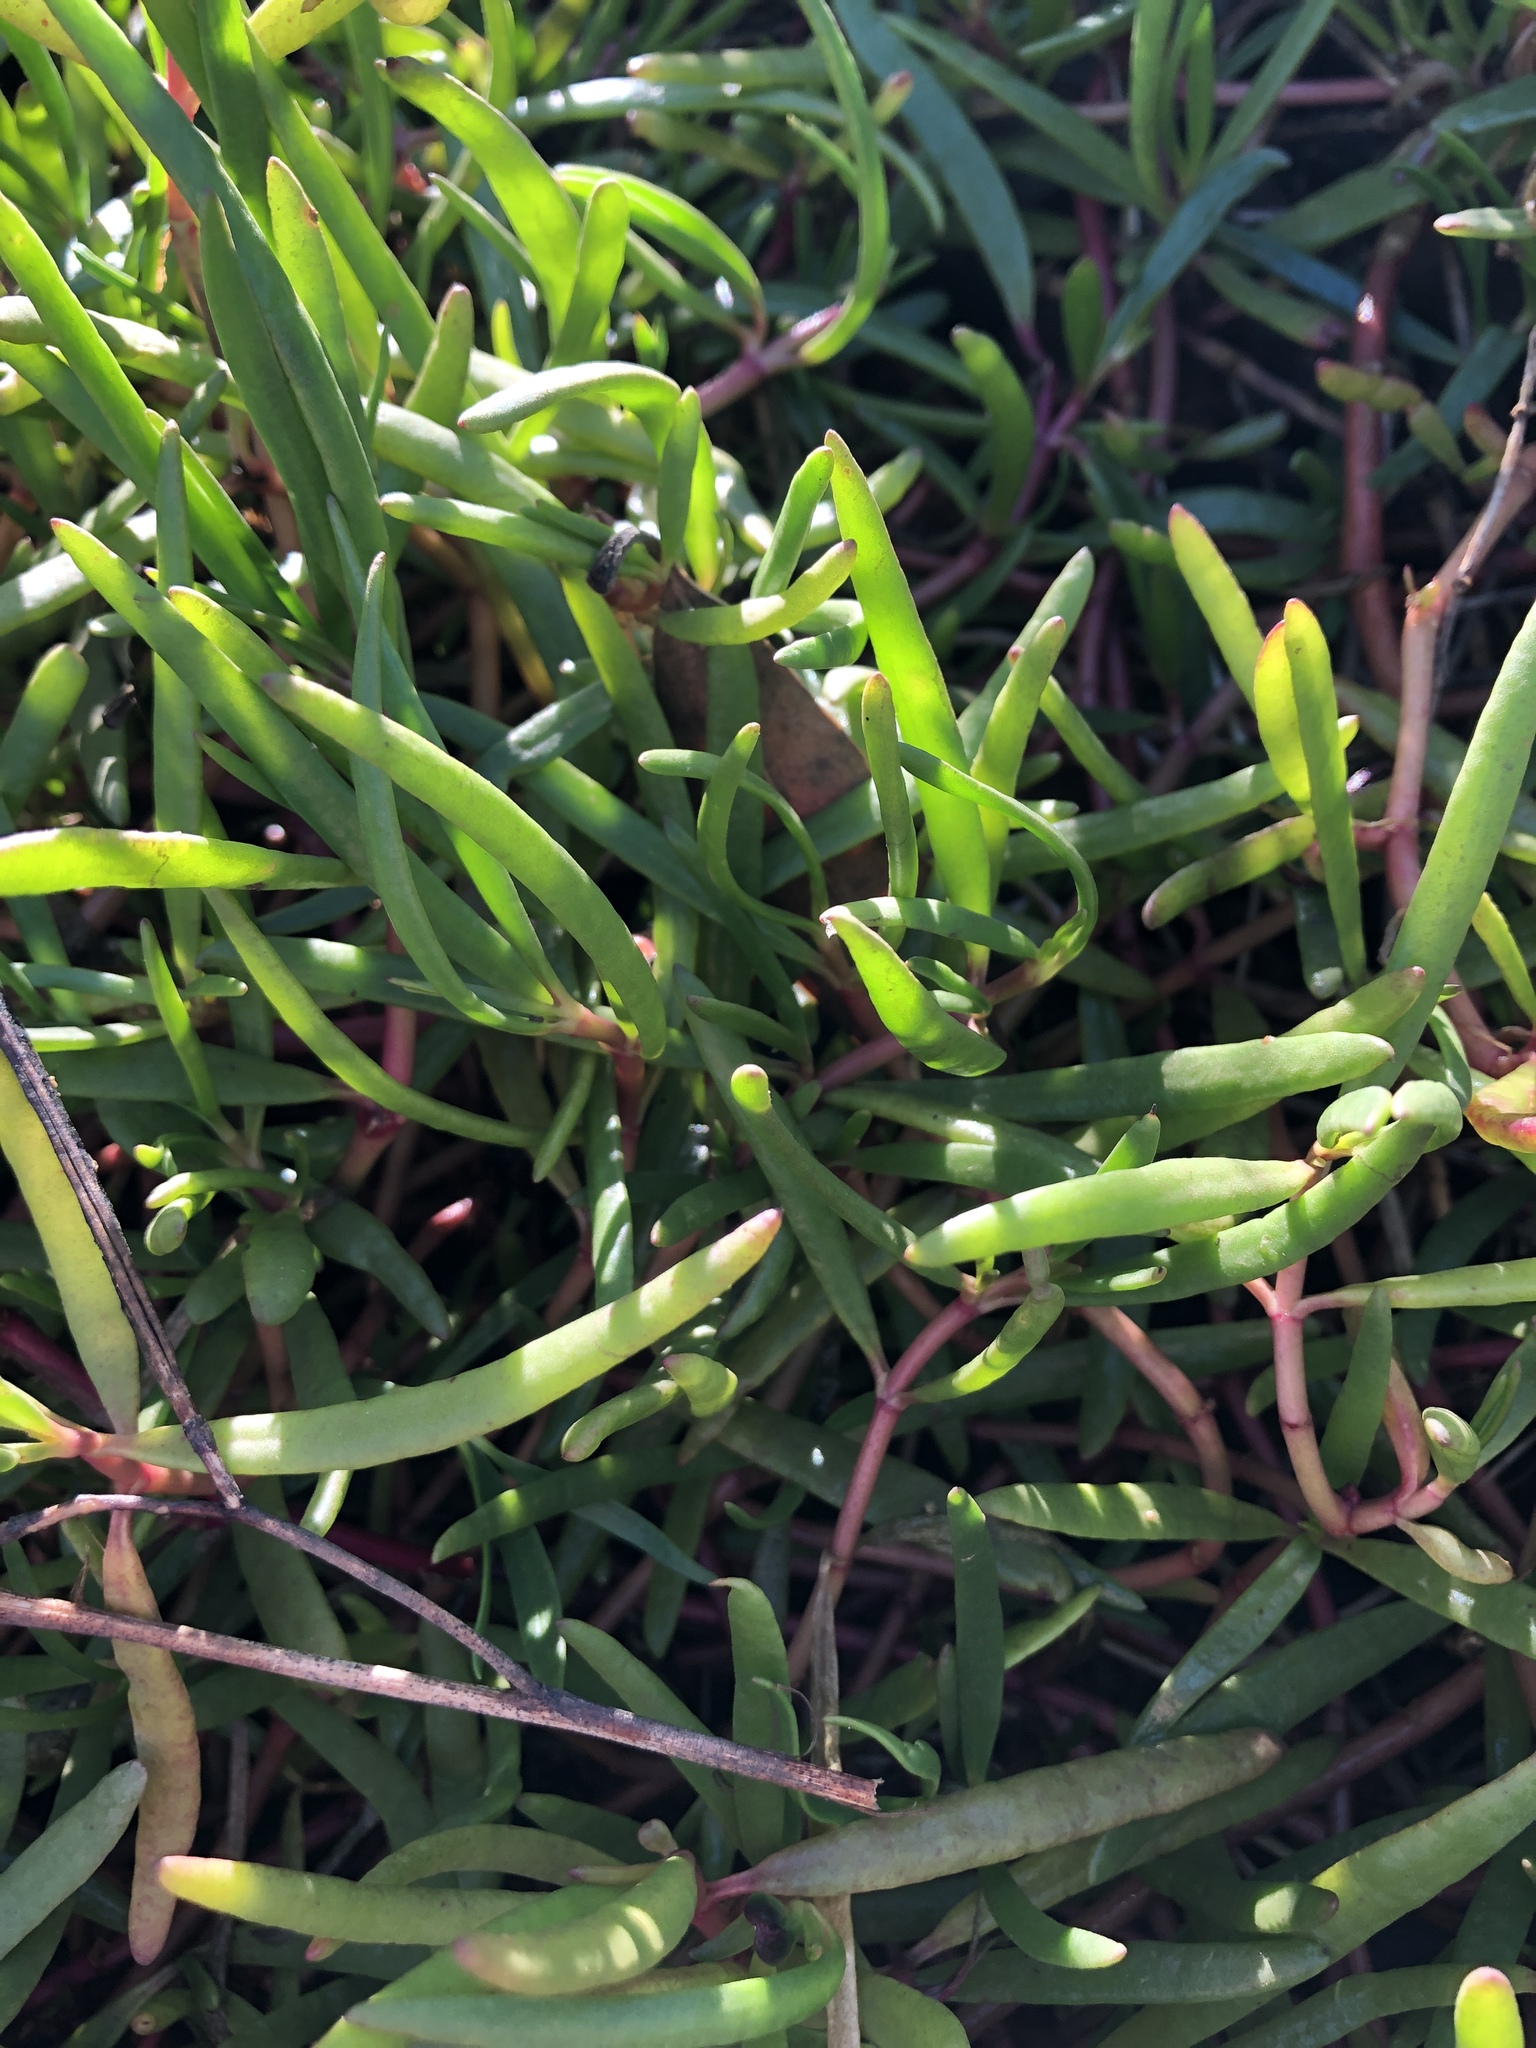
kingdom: Plantae
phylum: Tracheophyta
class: Magnoliopsida
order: Caryophyllales
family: Aizoaceae
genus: Sesuvium
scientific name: Sesuvium portulacastrum
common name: Sea-purslane
